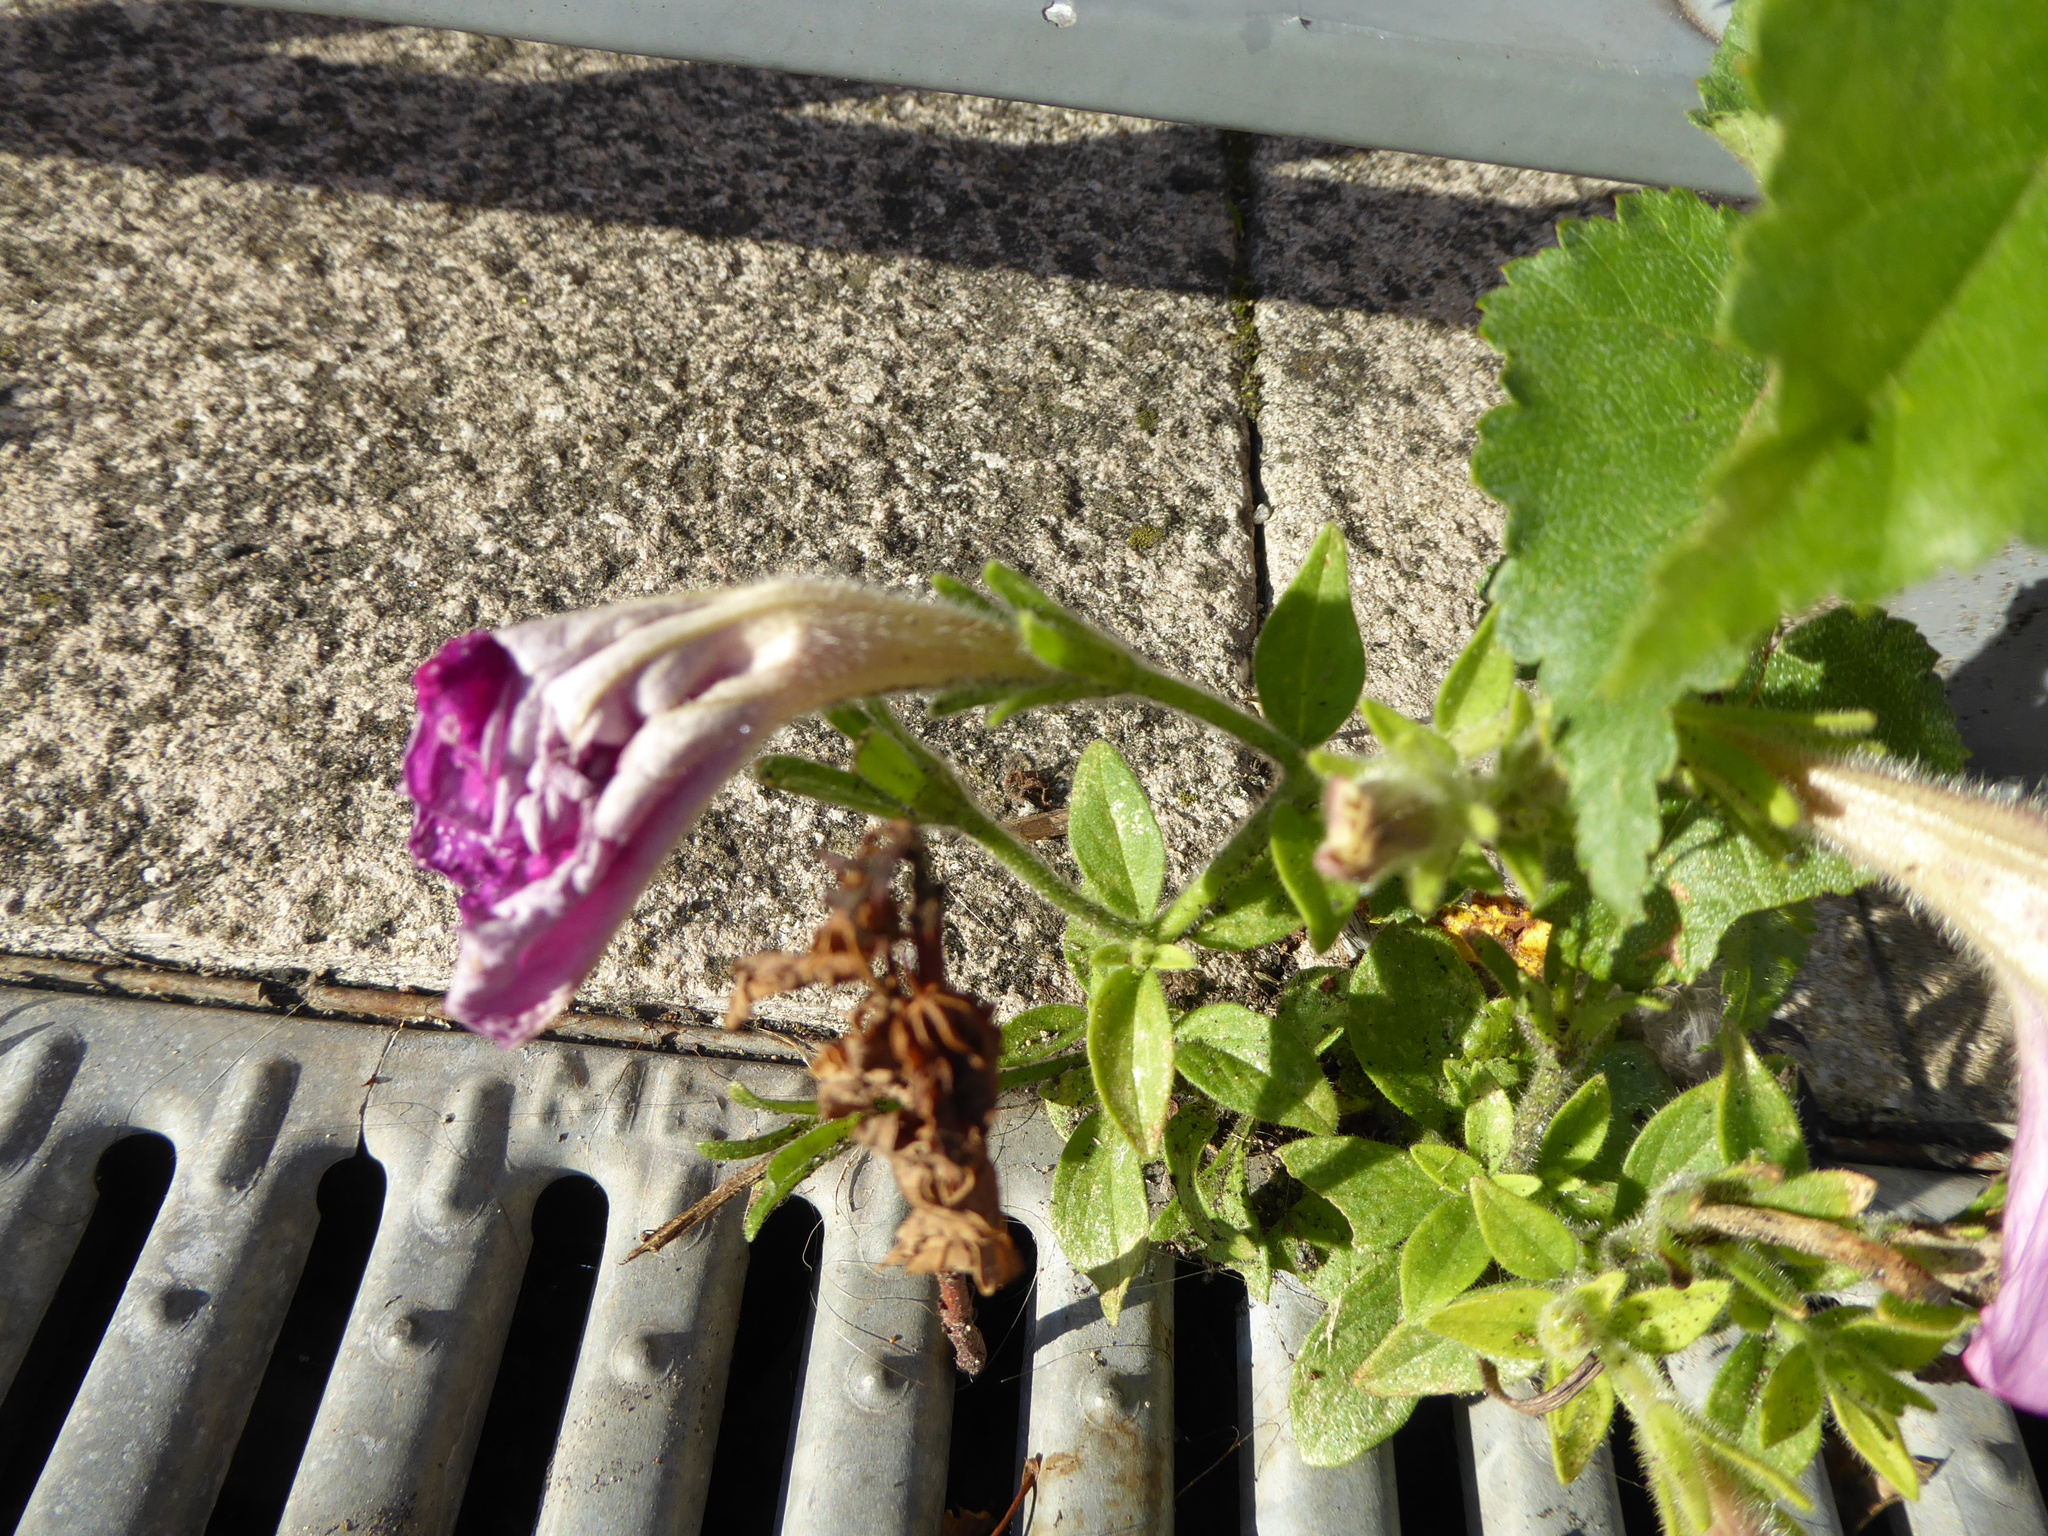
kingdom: Plantae
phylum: Tracheophyta
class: Magnoliopsida
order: Solanales
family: Solanaceae
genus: Petunia
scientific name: Petunia atkinsiana
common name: Petunia
